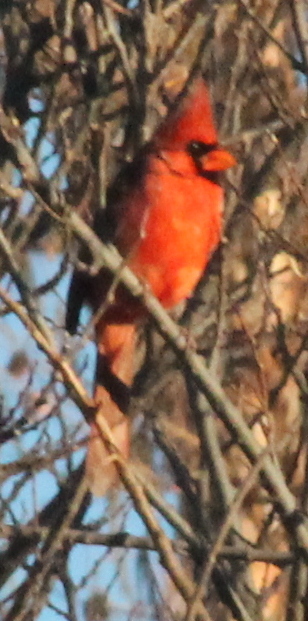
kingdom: Animalia
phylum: Chordata
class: Aves
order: Passeriformes
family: Cardinalidae
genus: Cardinalis
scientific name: Cardinalis cardinalis
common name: Northern cardinal
